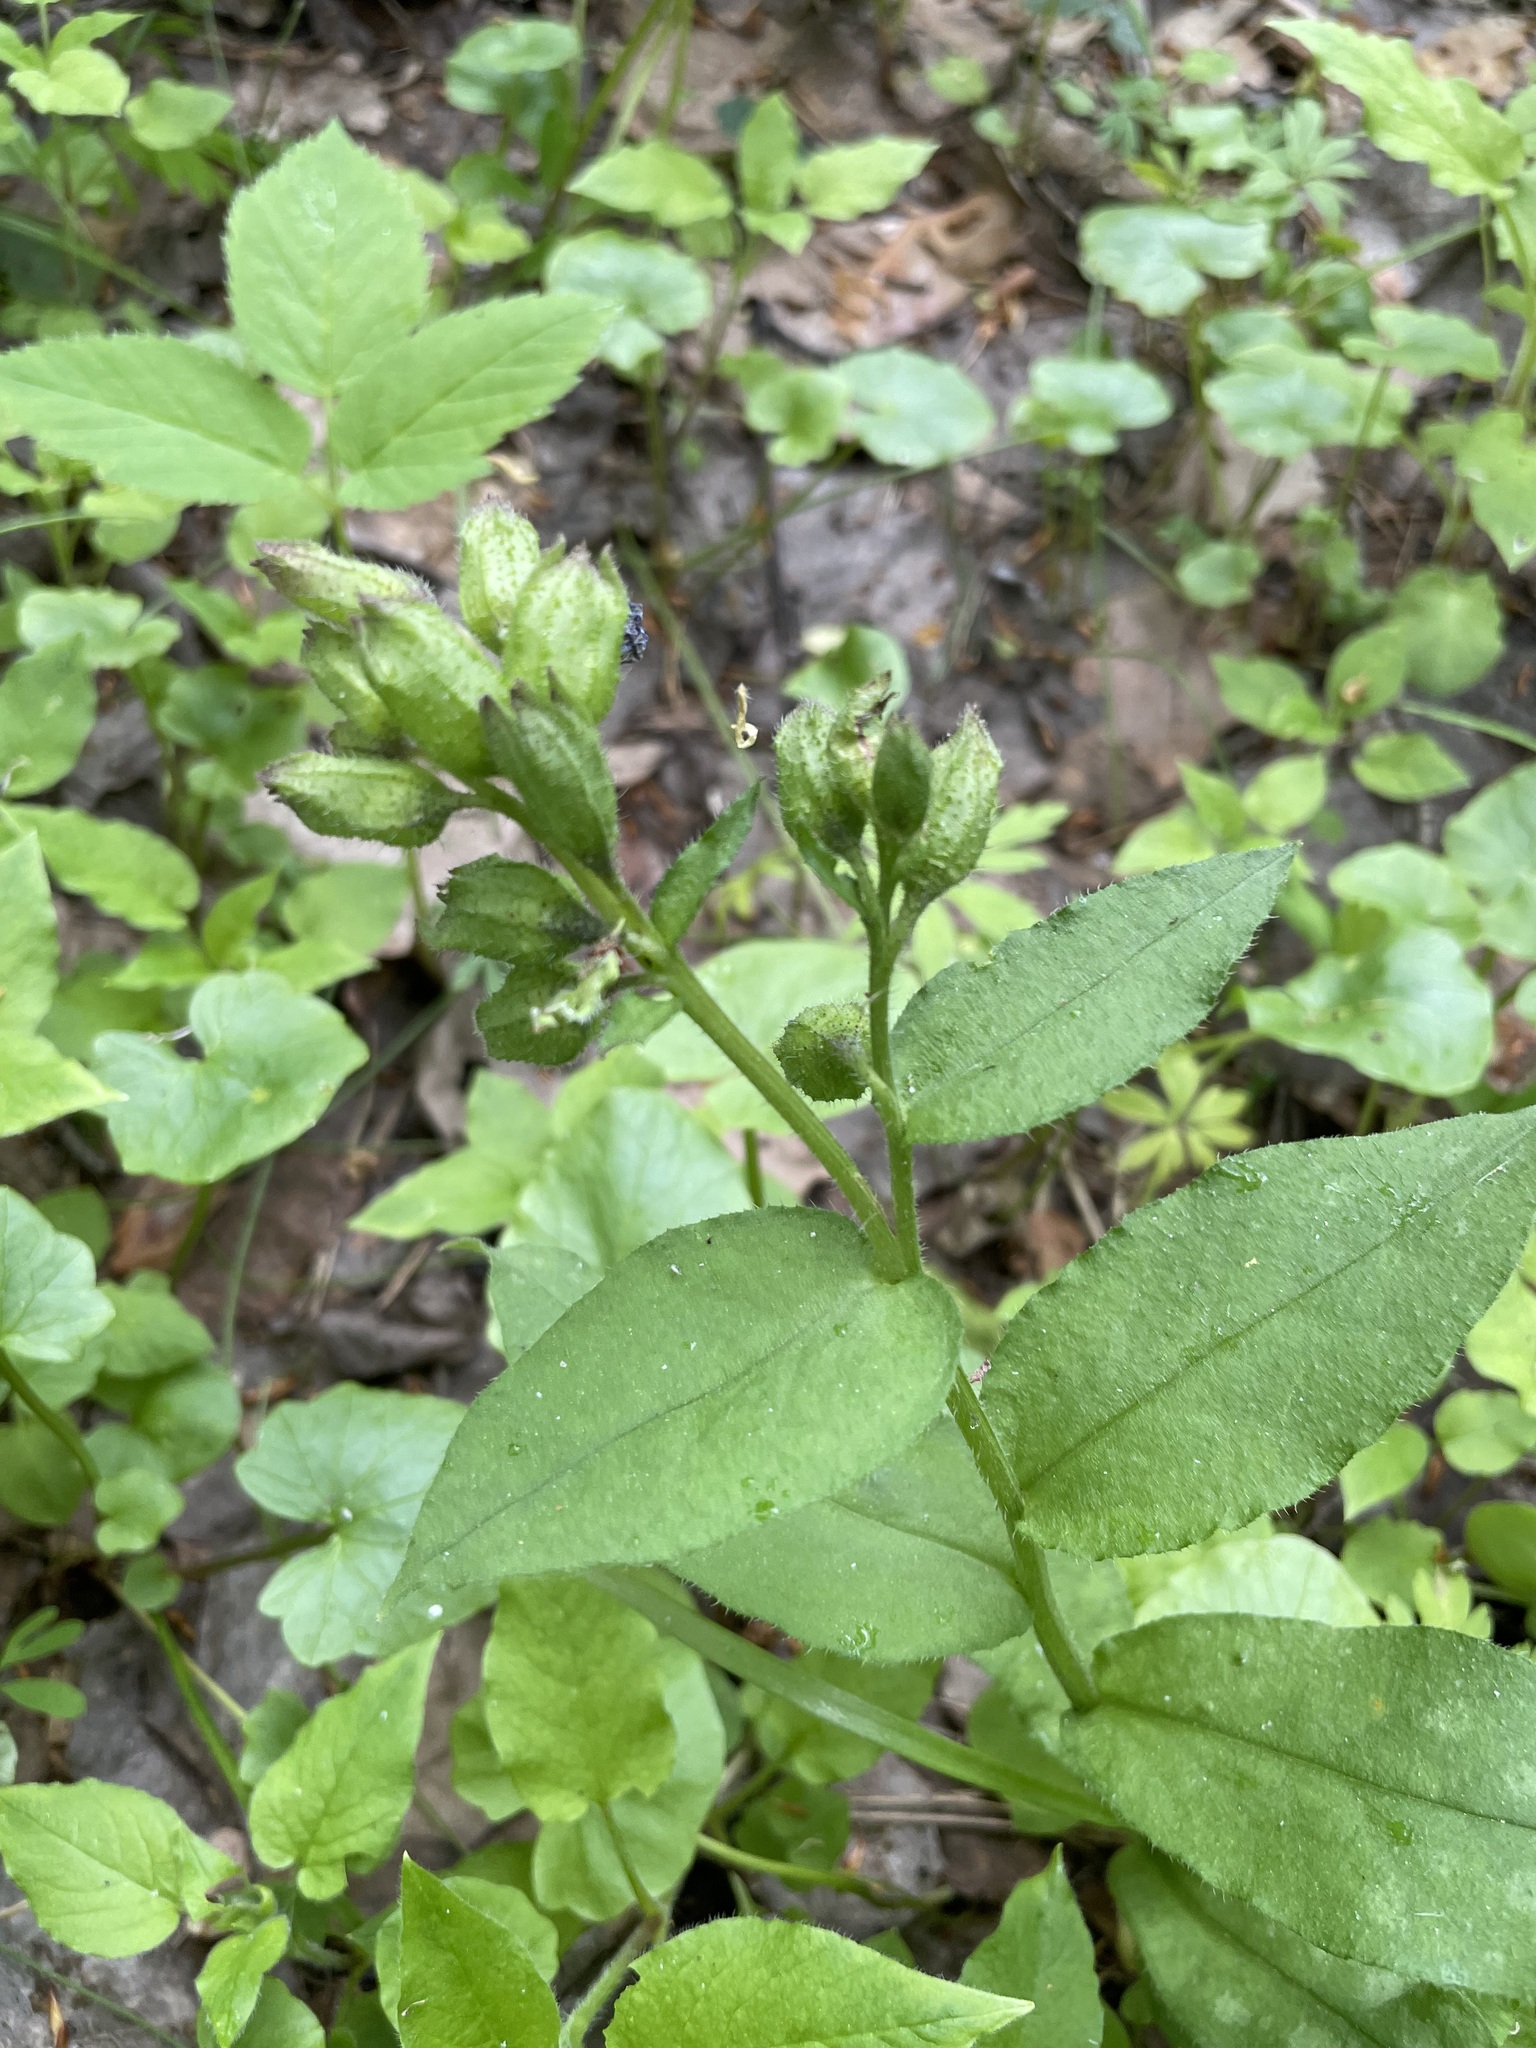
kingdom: Plantae
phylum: Tracheophyta
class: Magnoliopsida
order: Boraginales
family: Boraginaceae
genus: Pulmonaria
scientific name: Pulmonaria obscura
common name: Suffolk lungwort
